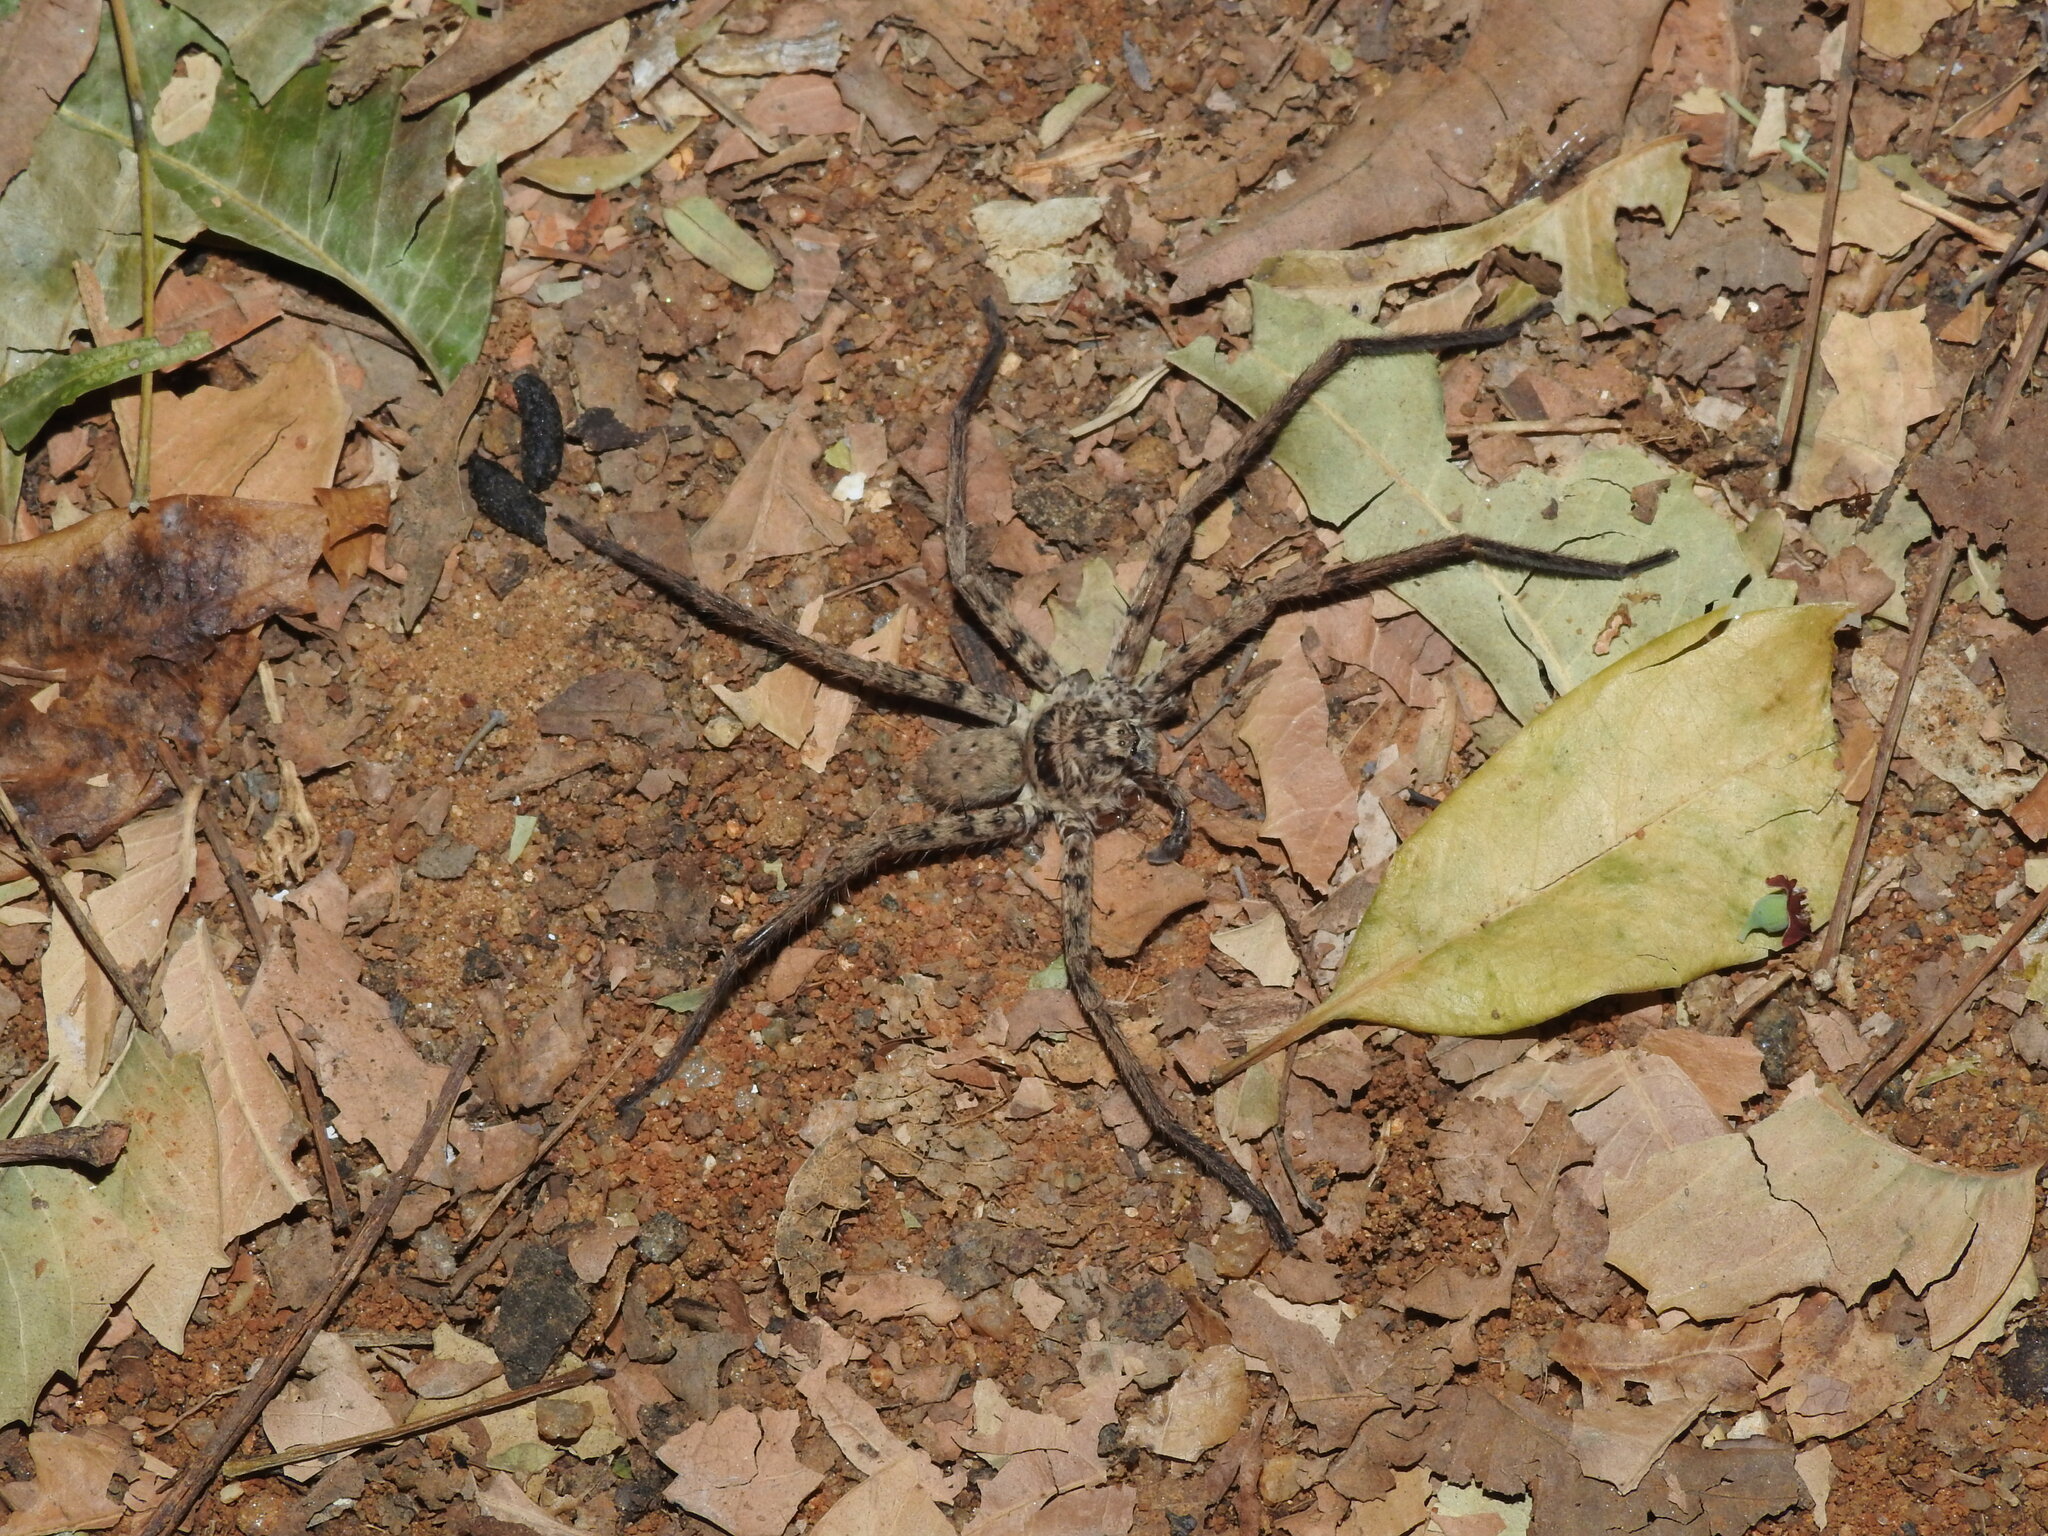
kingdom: Animalia
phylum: Arthropoda
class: Arachnida
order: Araneae
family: Sparassidae
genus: Heteropoda
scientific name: Heteropoda venatoria
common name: Huntsman spider
